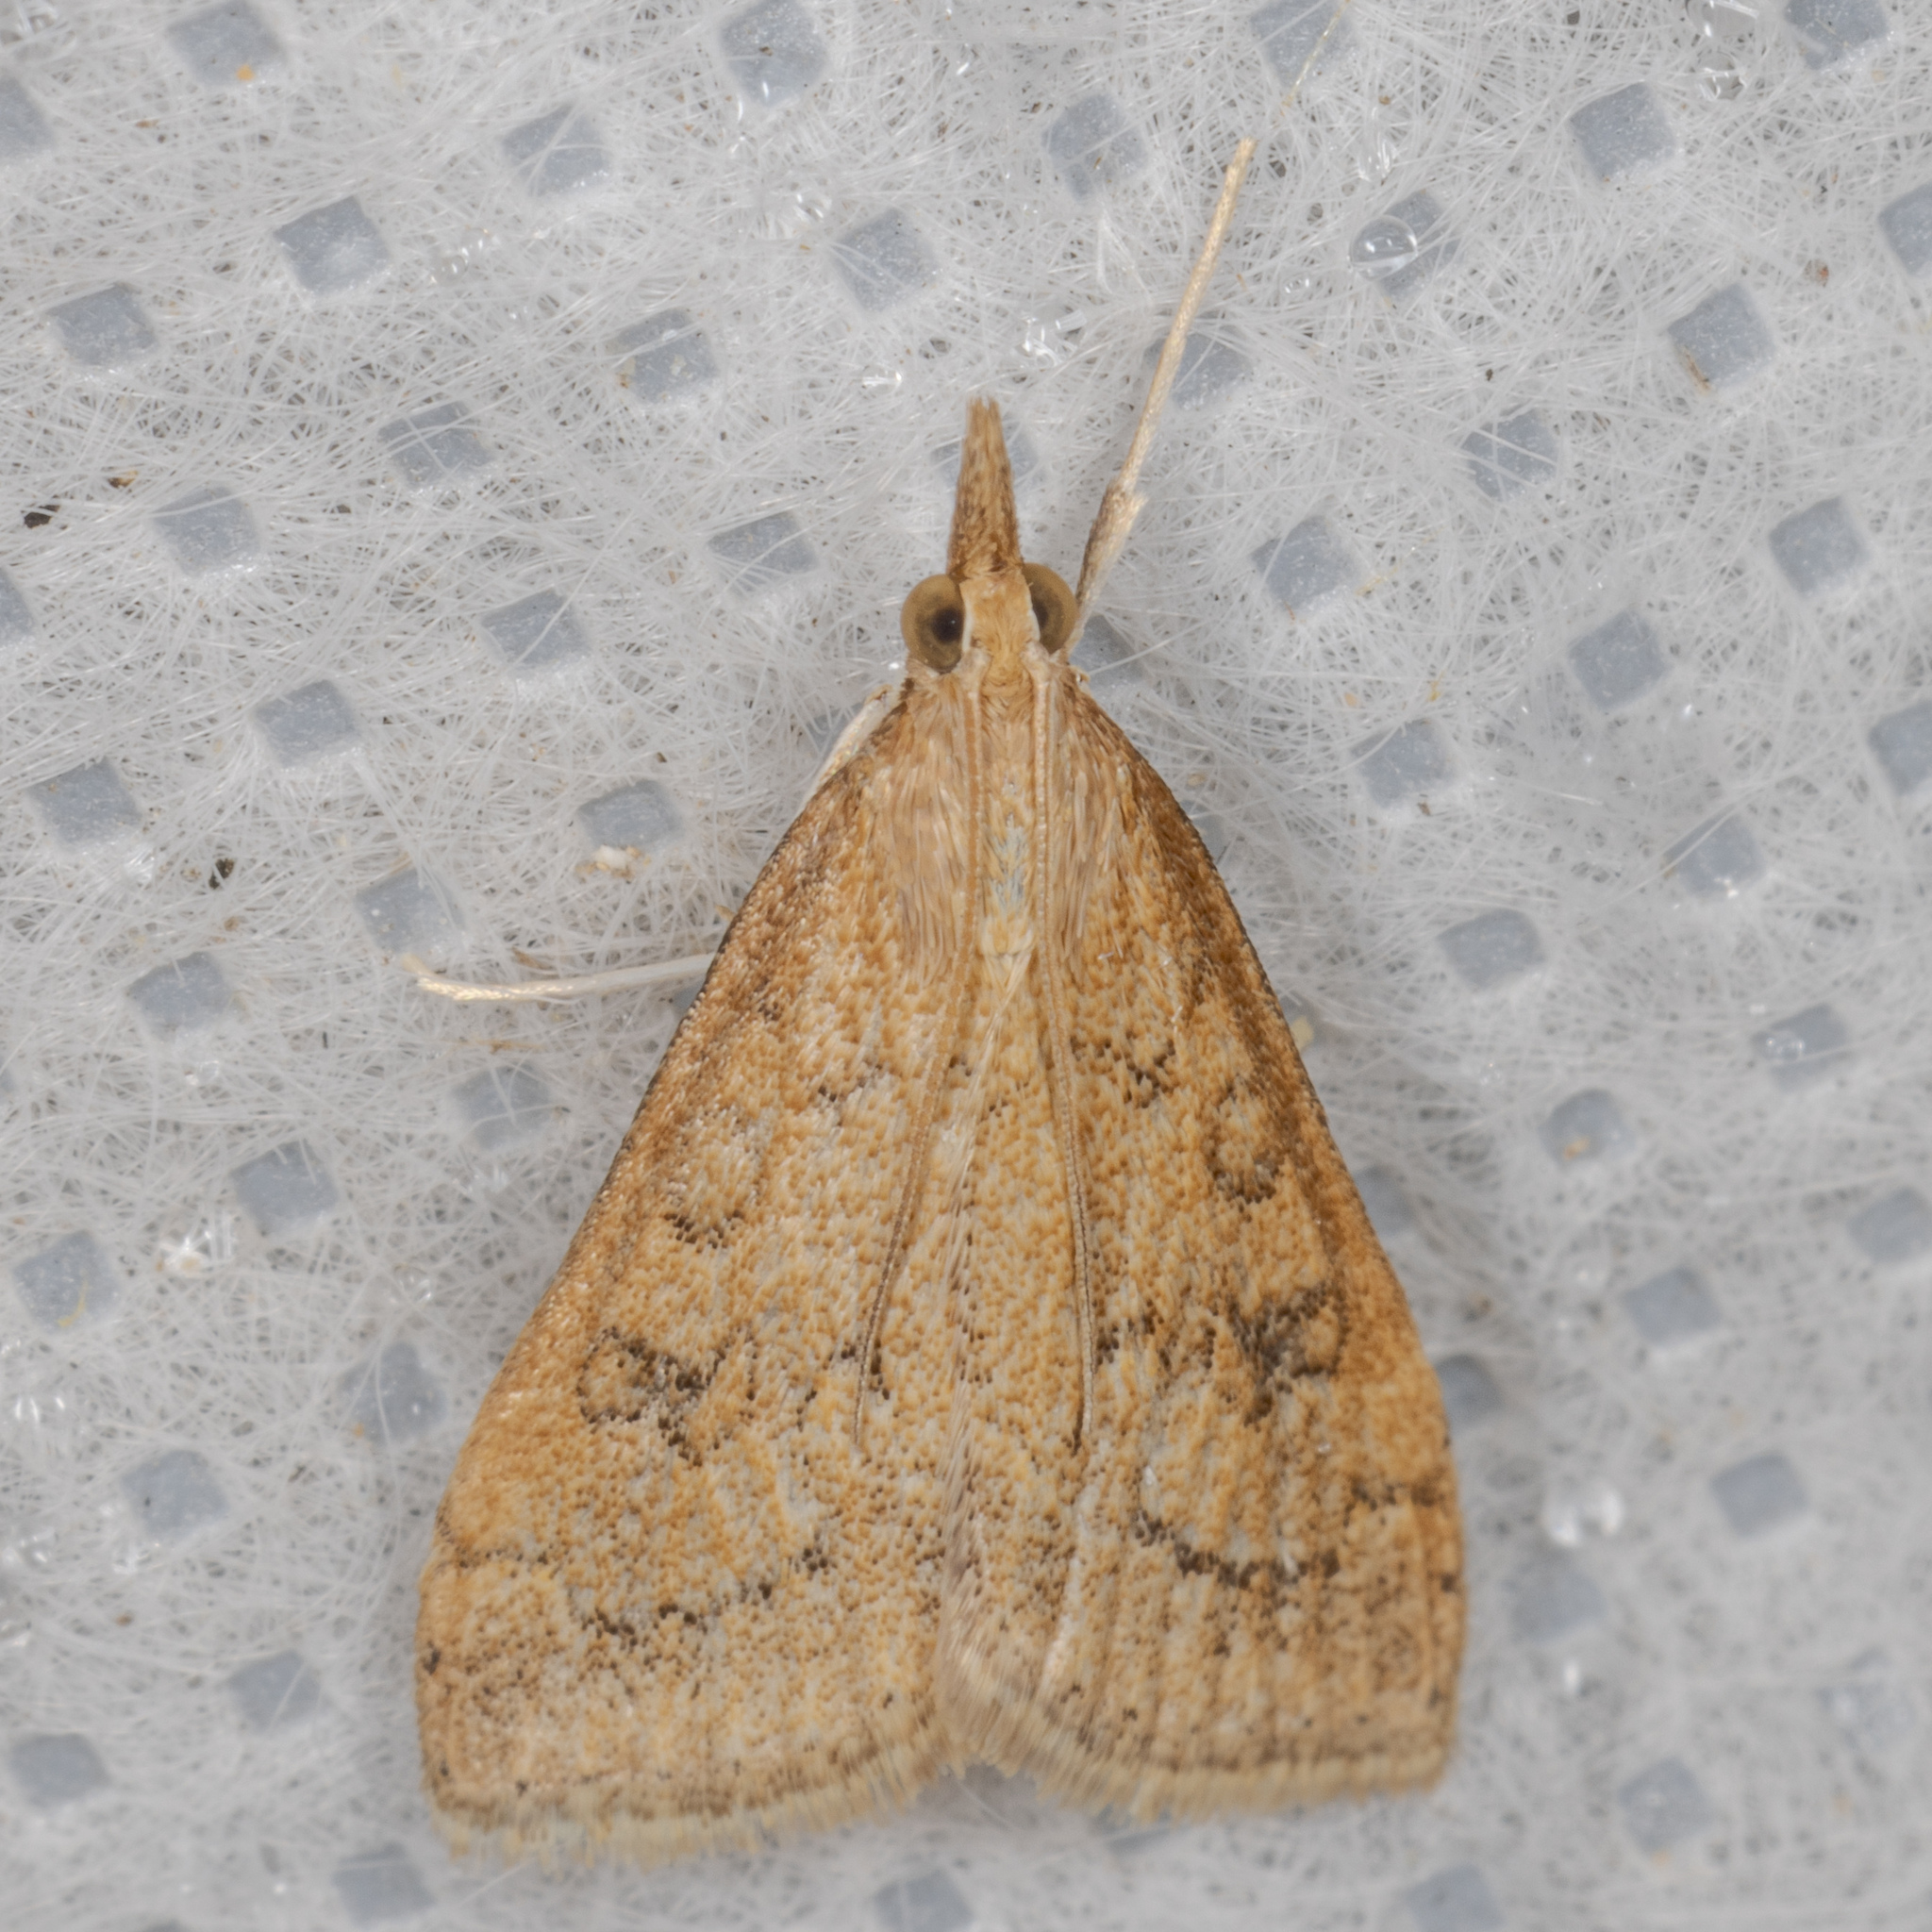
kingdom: Animalia
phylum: Arthropoda
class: Insecta
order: Lepidoptera
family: Crambidae
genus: Udea
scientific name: Udea rubigalis
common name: Celery leaftier moth
